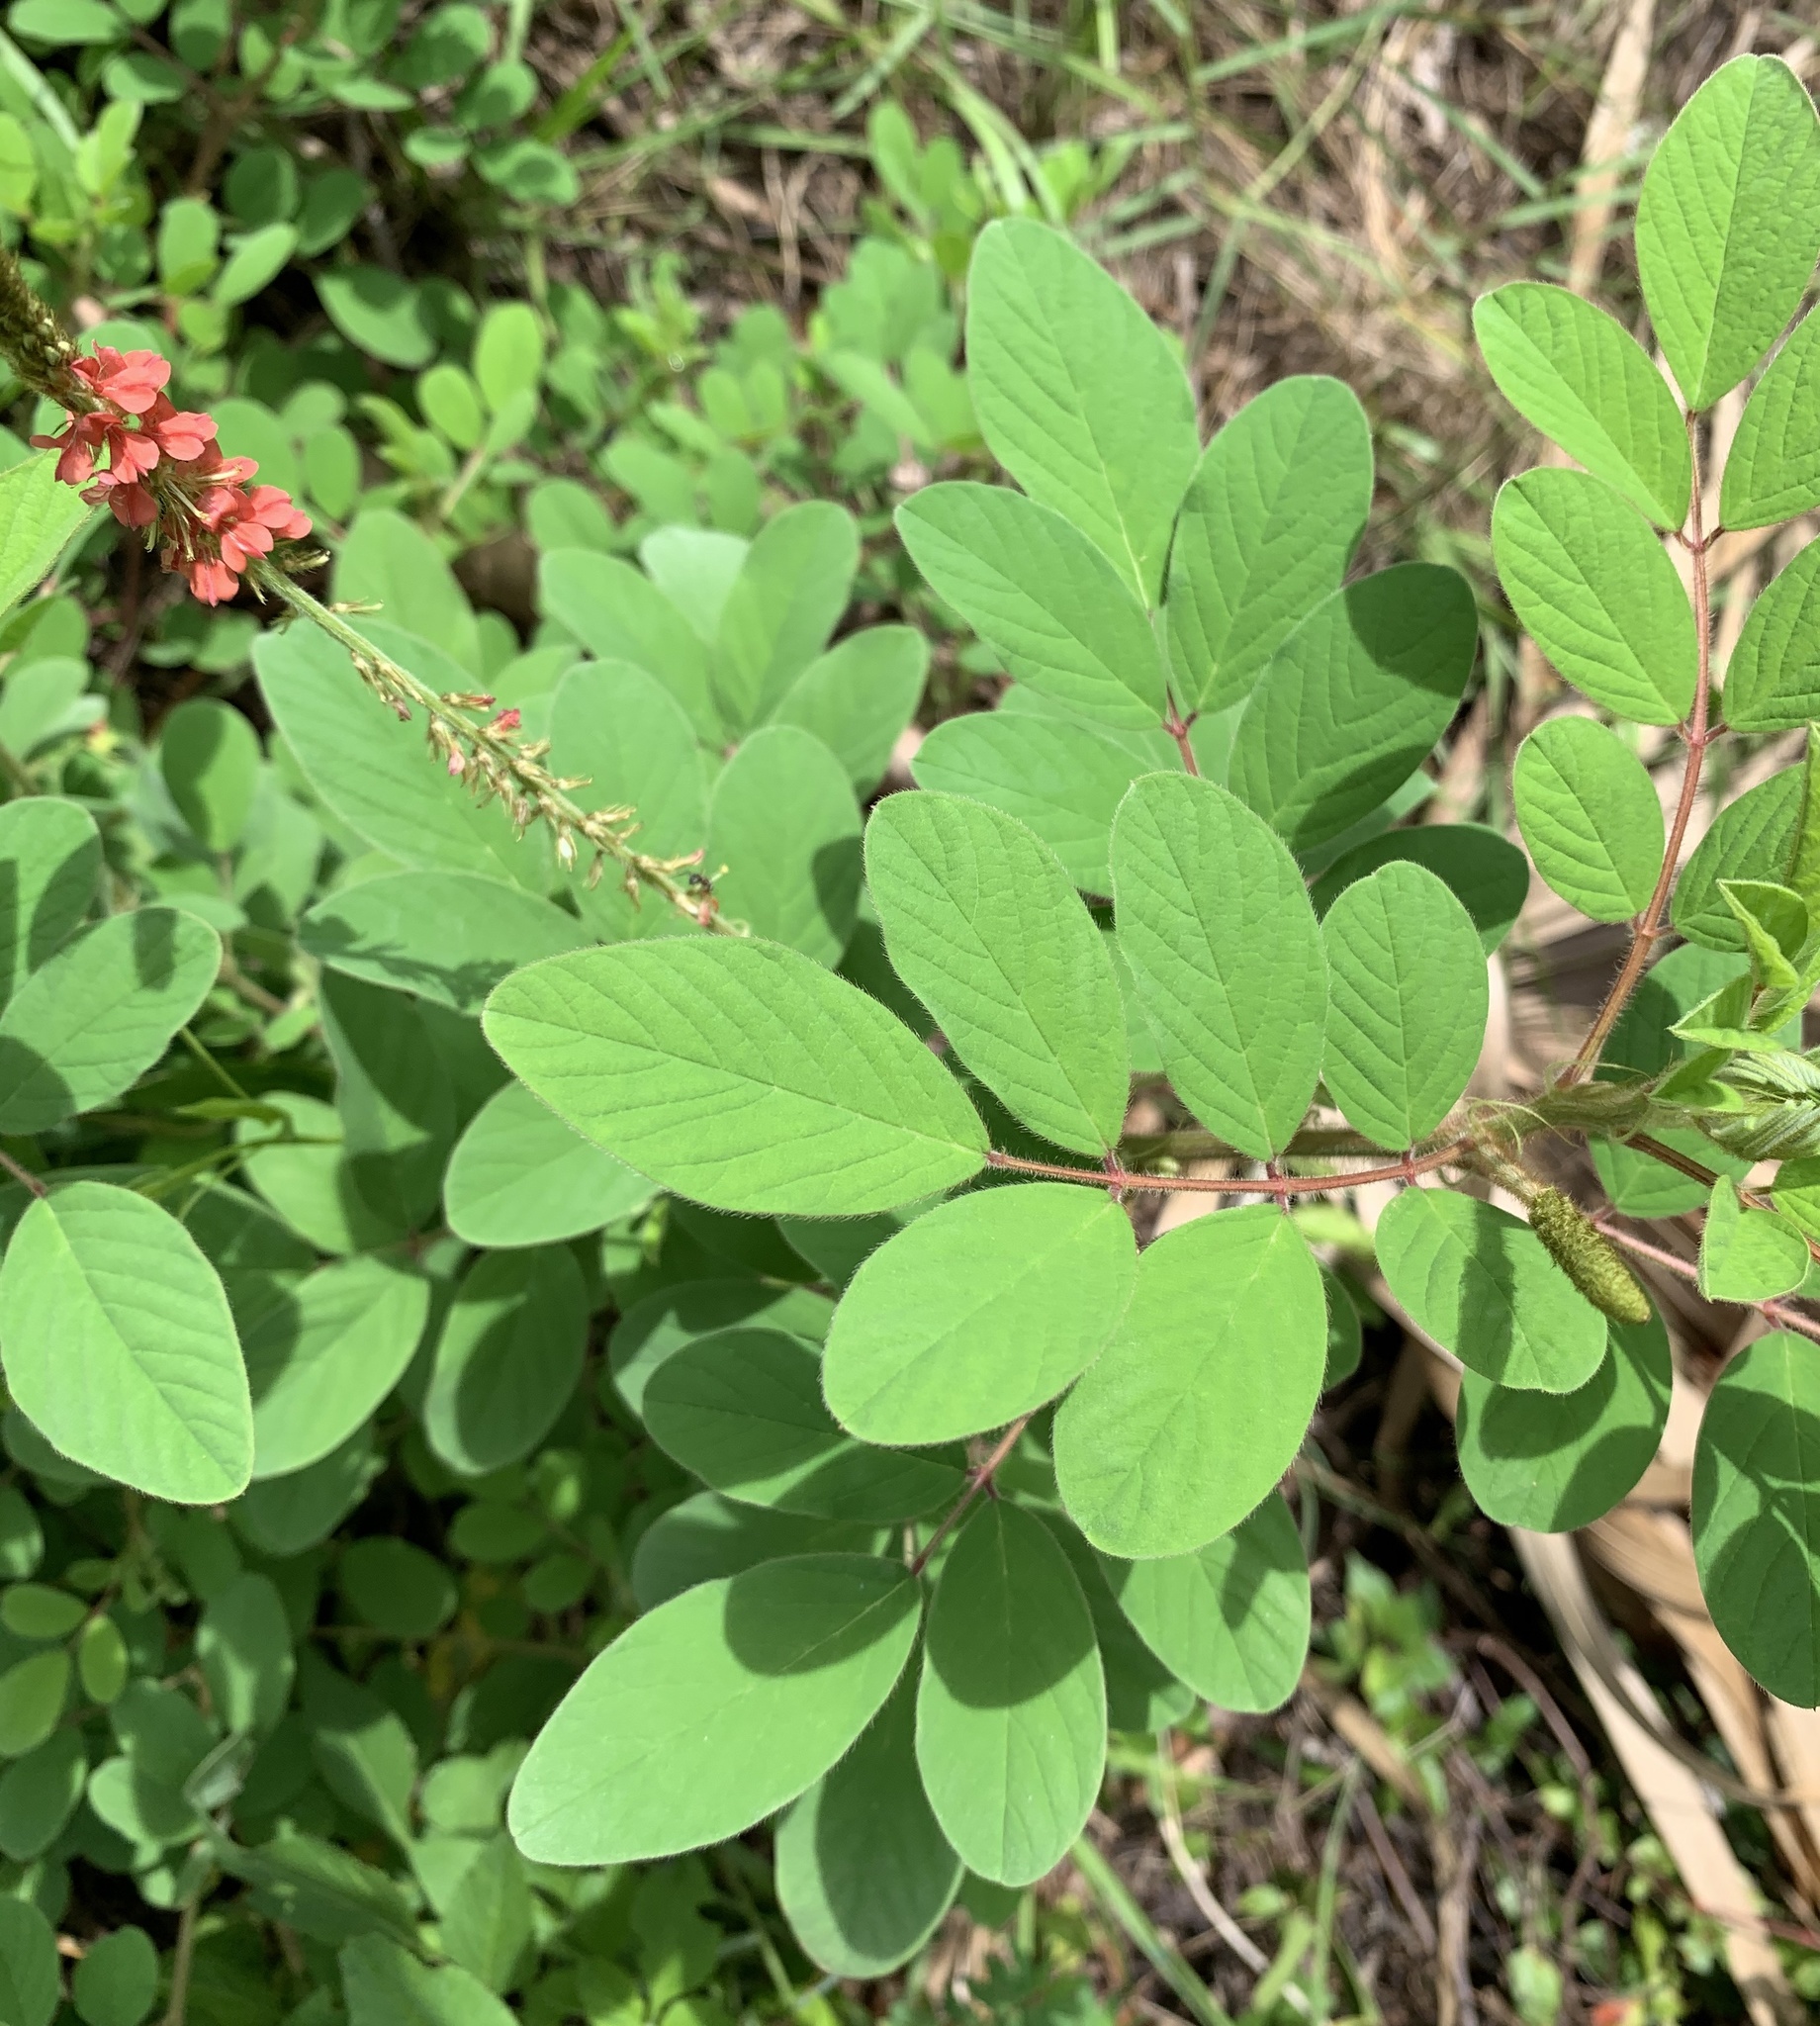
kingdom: Plantae
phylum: Tracheophyta
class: Magnoliopsida
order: Fabales
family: Fabaceae
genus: Indigofera
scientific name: Indigofera hirsuta
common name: Hairy indigo
